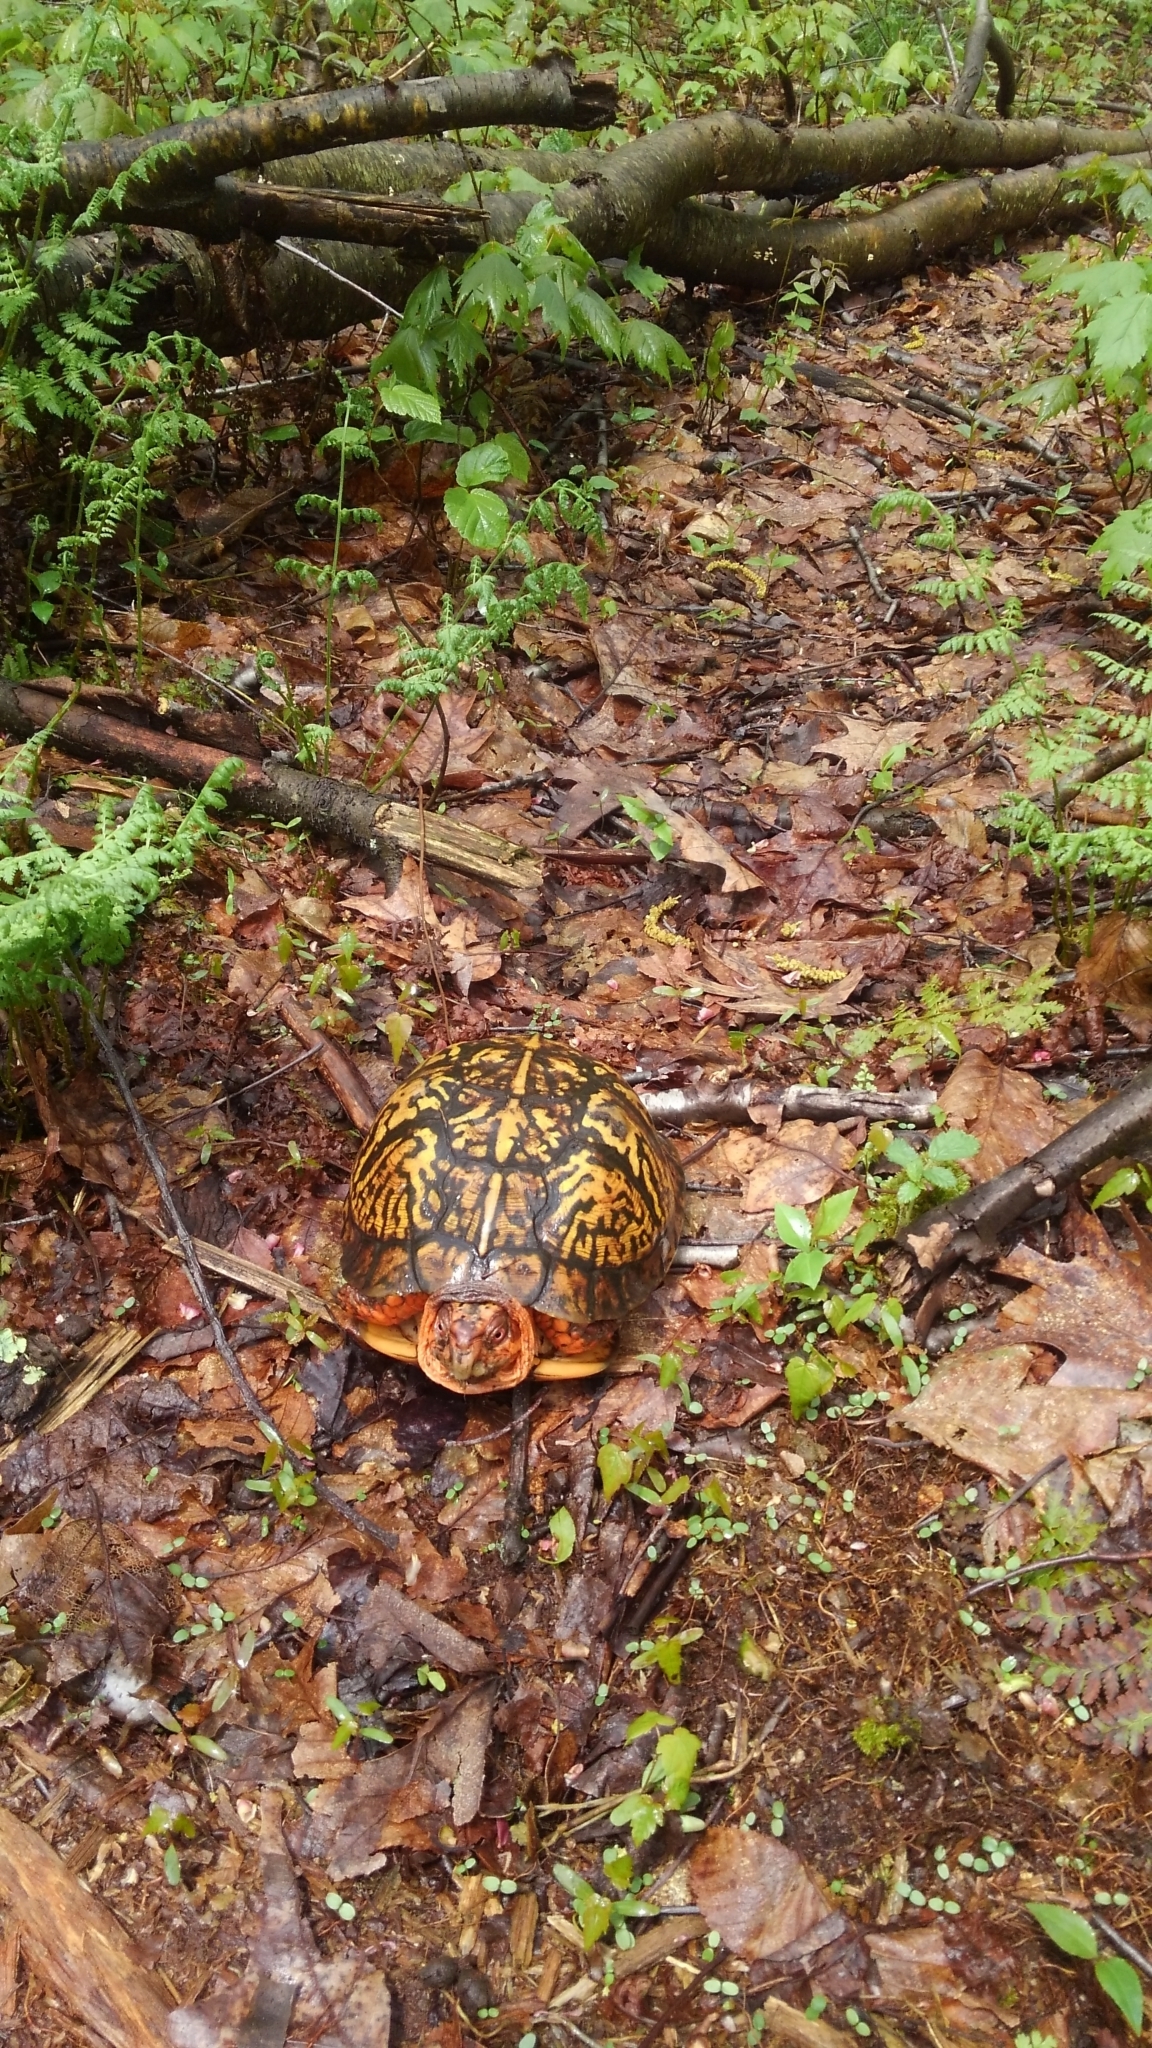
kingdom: Animalia
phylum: Chordata
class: Testudines
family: Emydidae
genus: Terrapene
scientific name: Terrapene carolina
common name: Common box turtle
